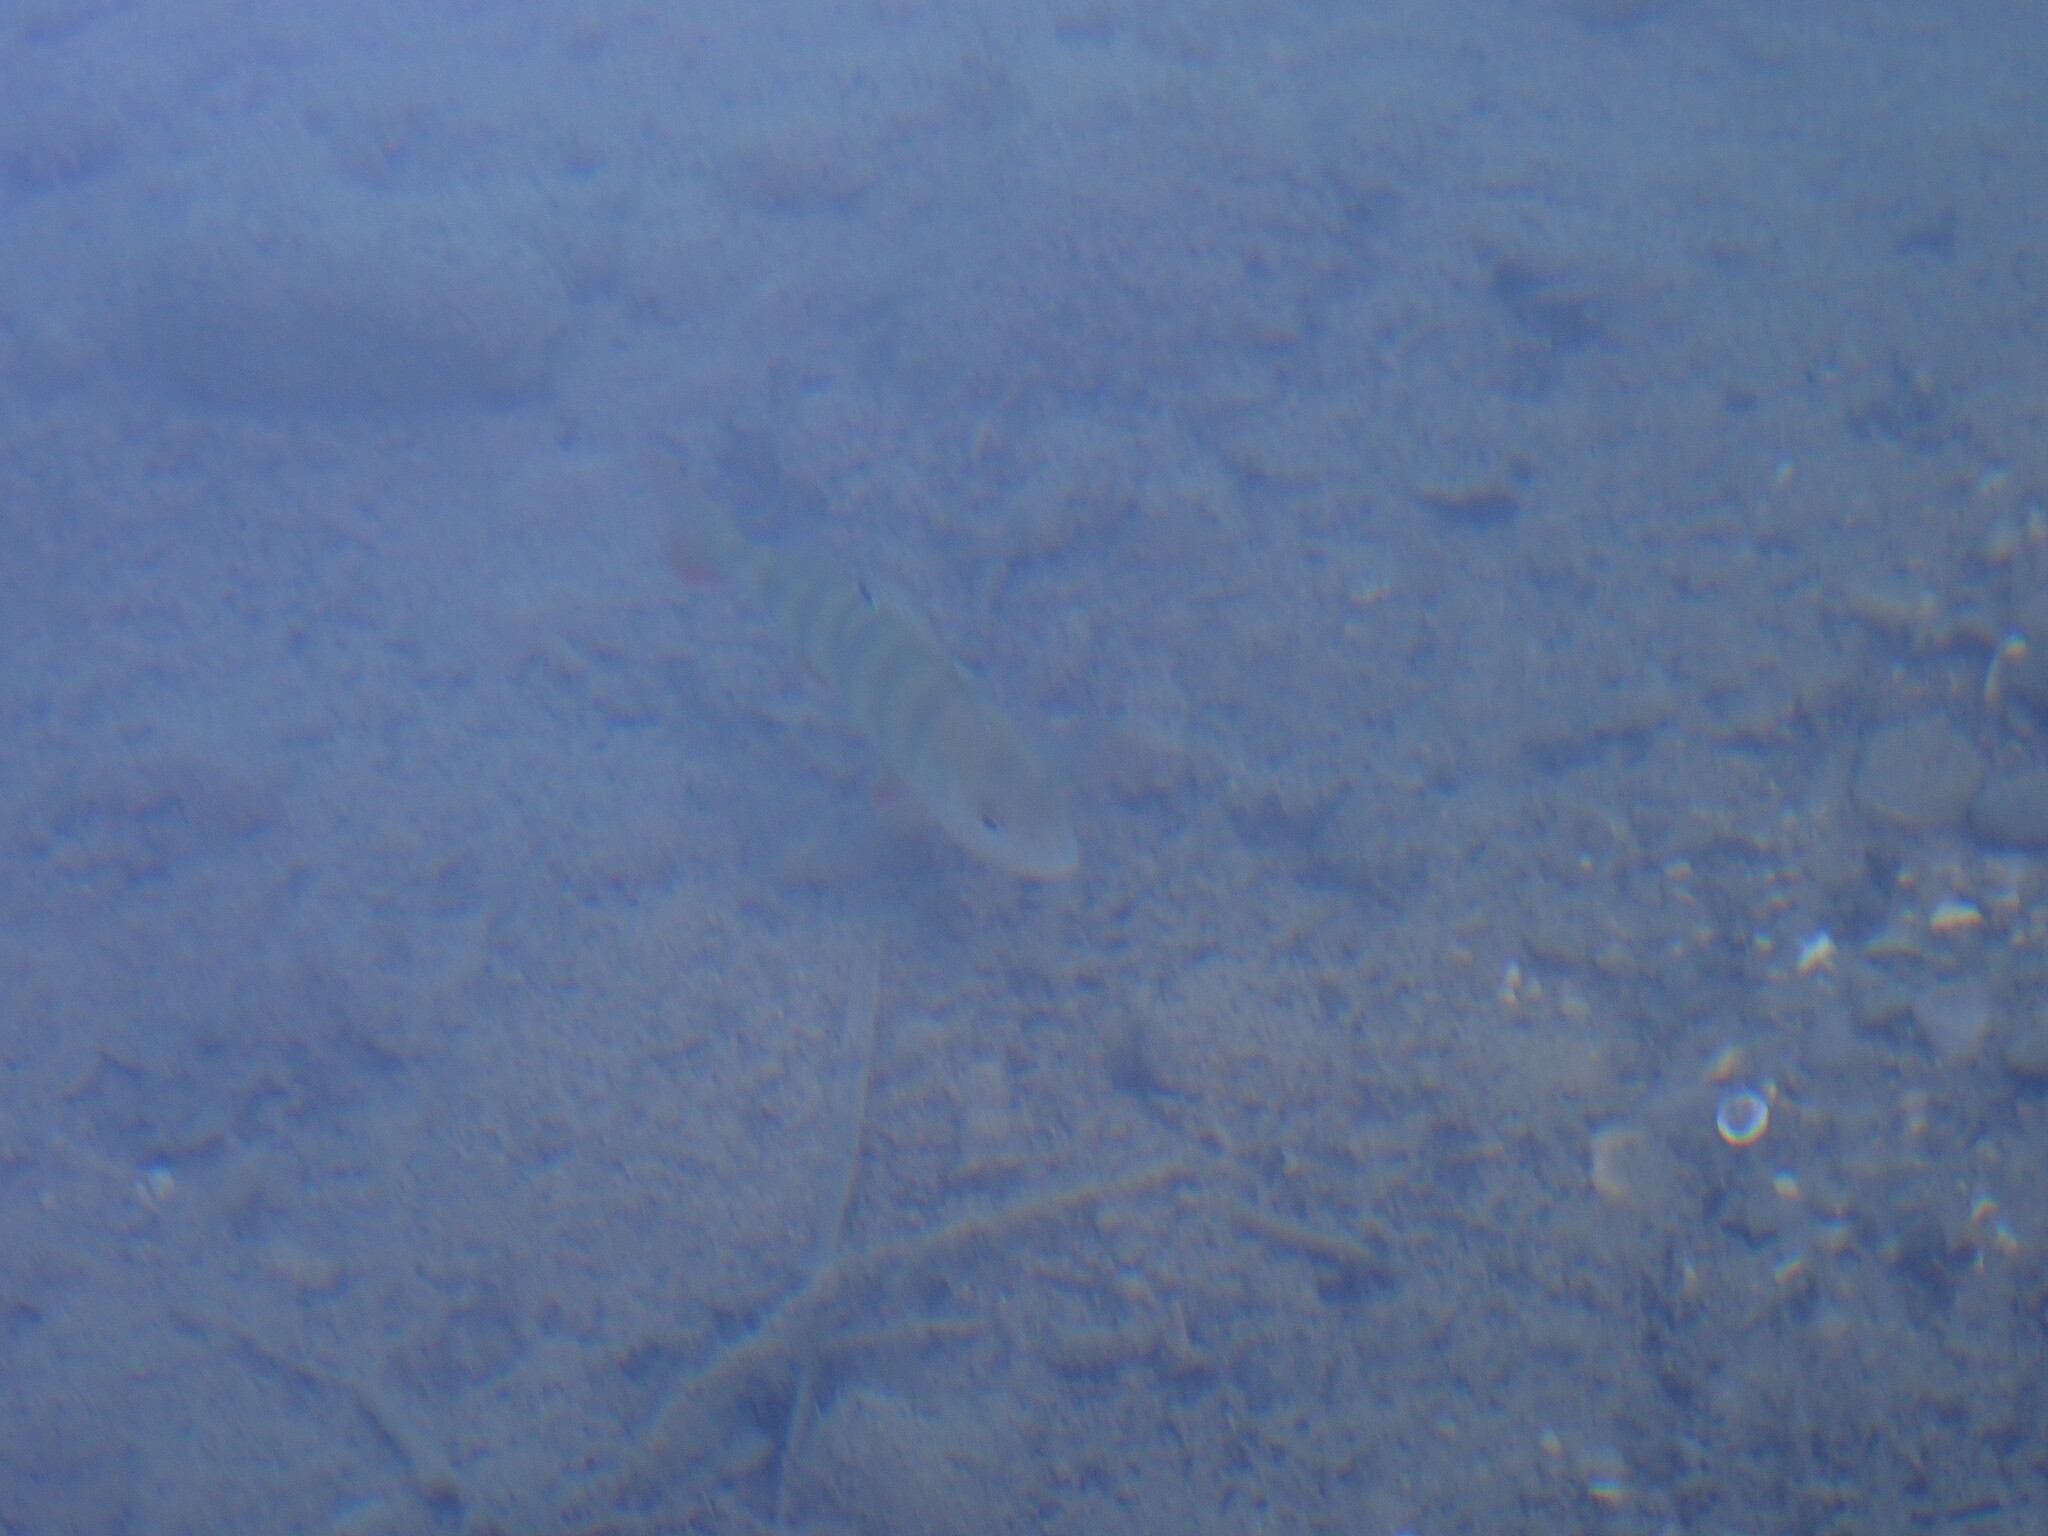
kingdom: Animalia
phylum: Chordata
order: Perciformes
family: Percidae
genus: Perca
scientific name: Perca fluviatilis
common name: Perch
